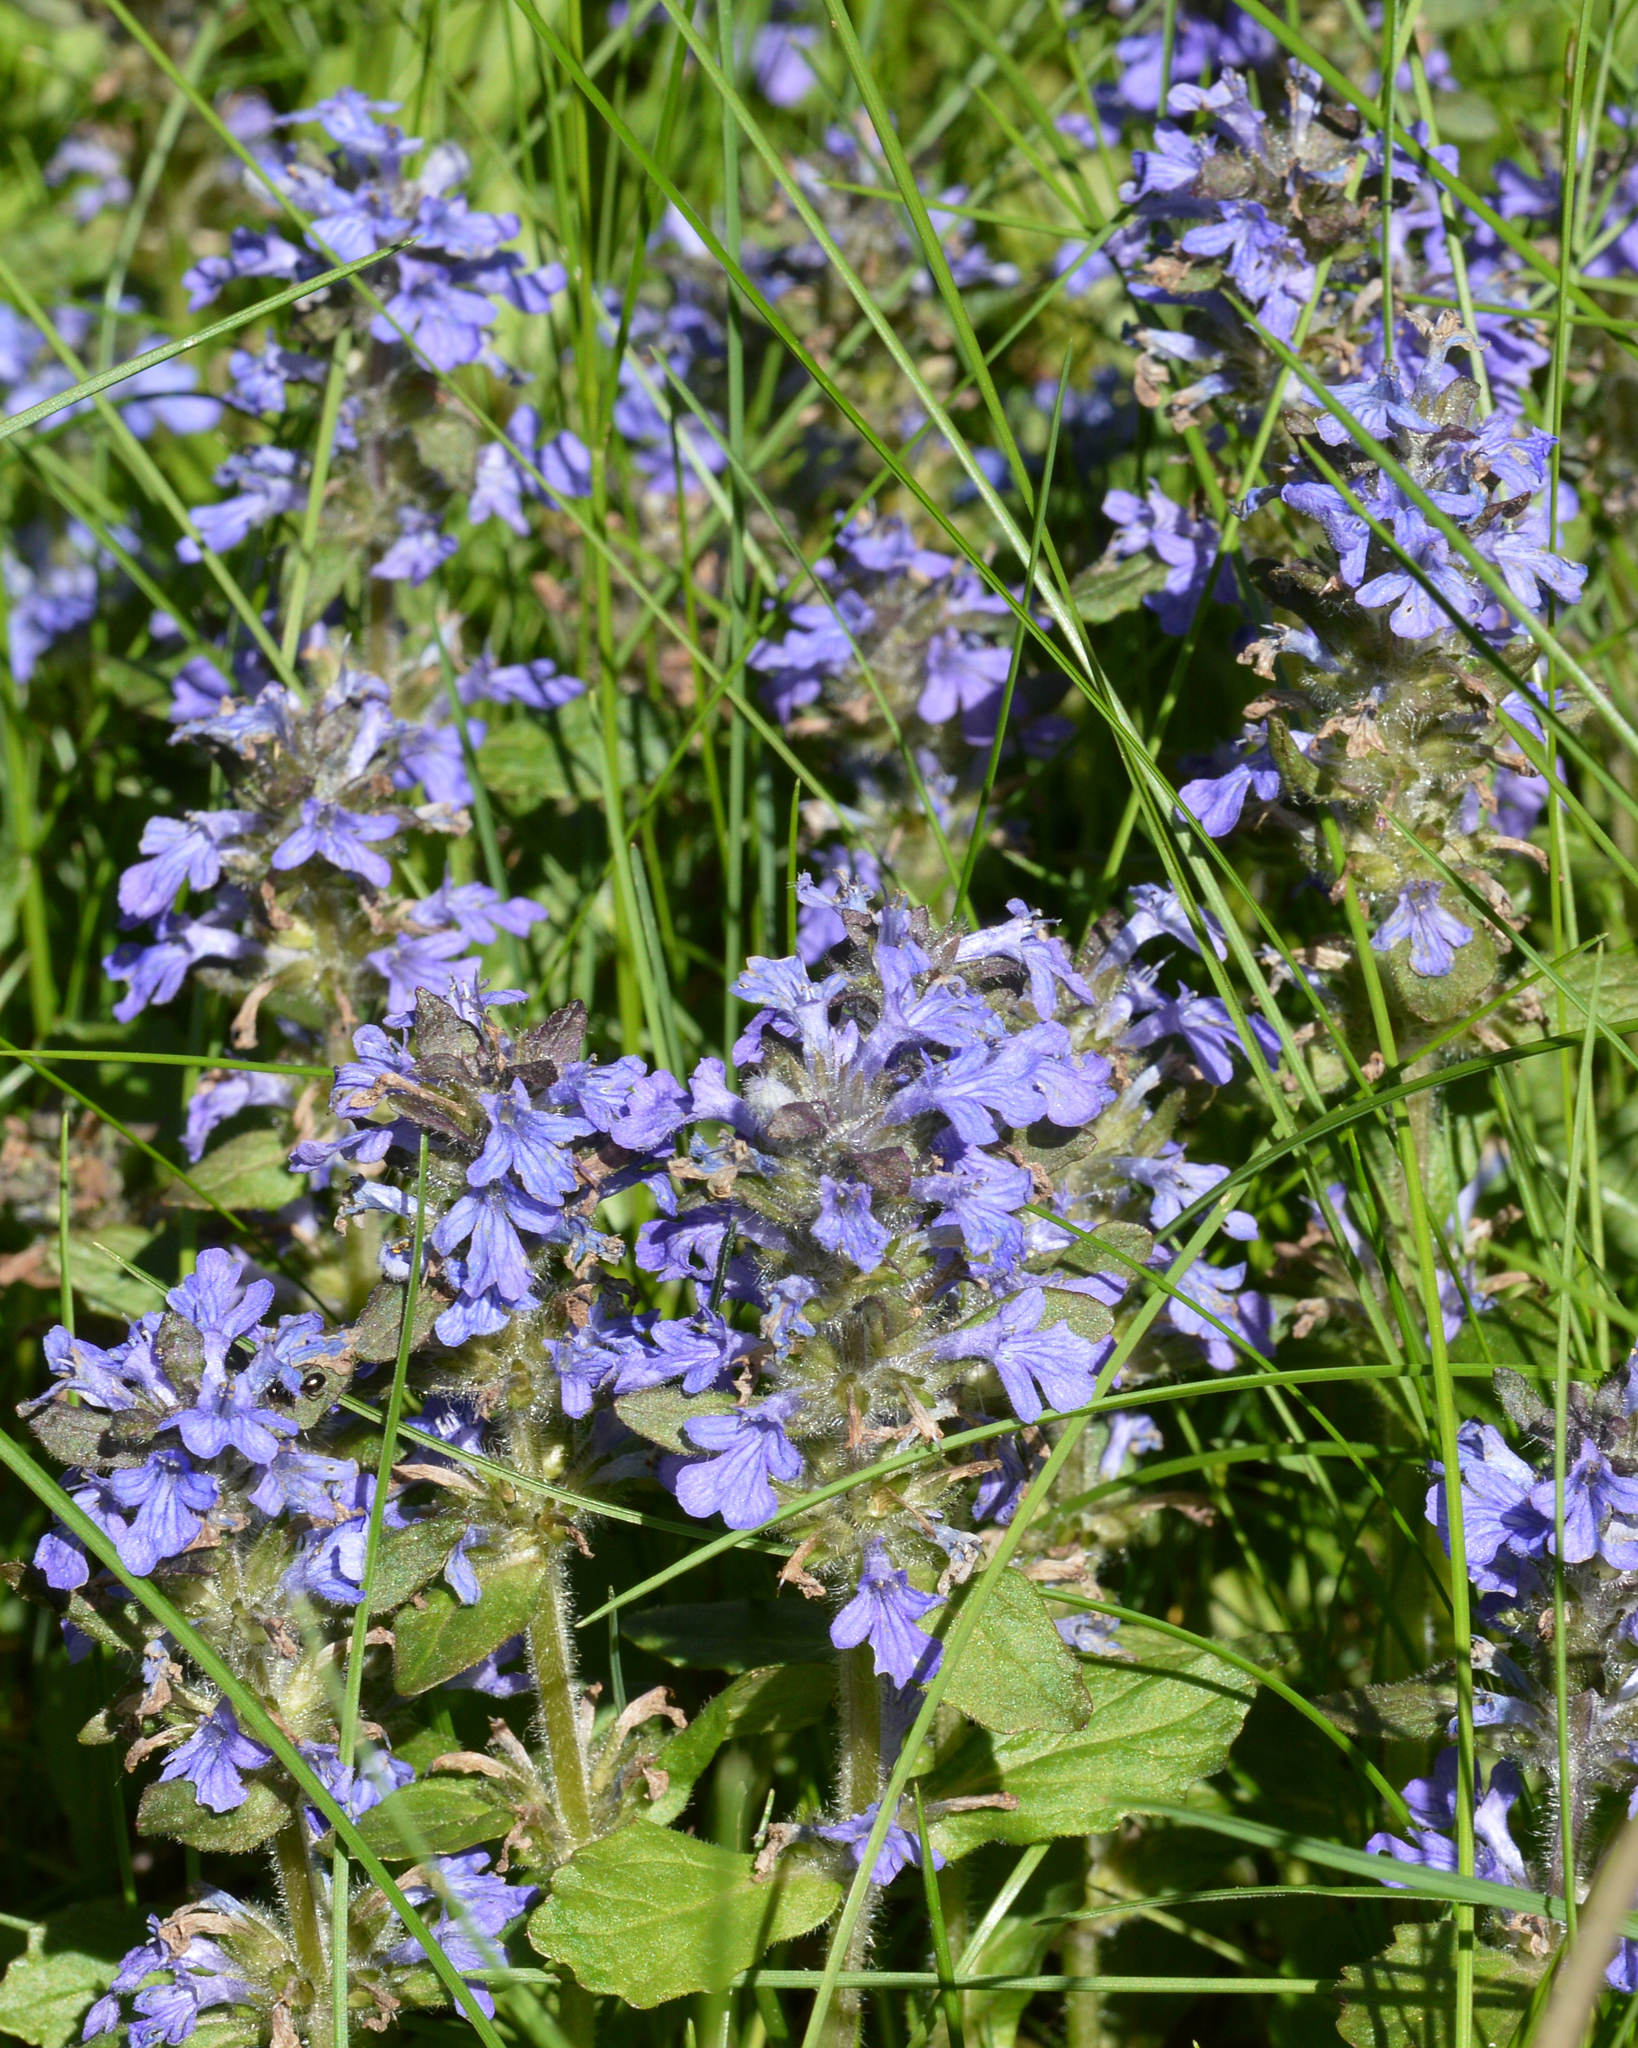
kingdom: Plantae
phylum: Tracheophyta
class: Magnoliopsida
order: Lamiales
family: Lamiaceae
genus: Ajuga
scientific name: Ajuga reptans
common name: Bugle
